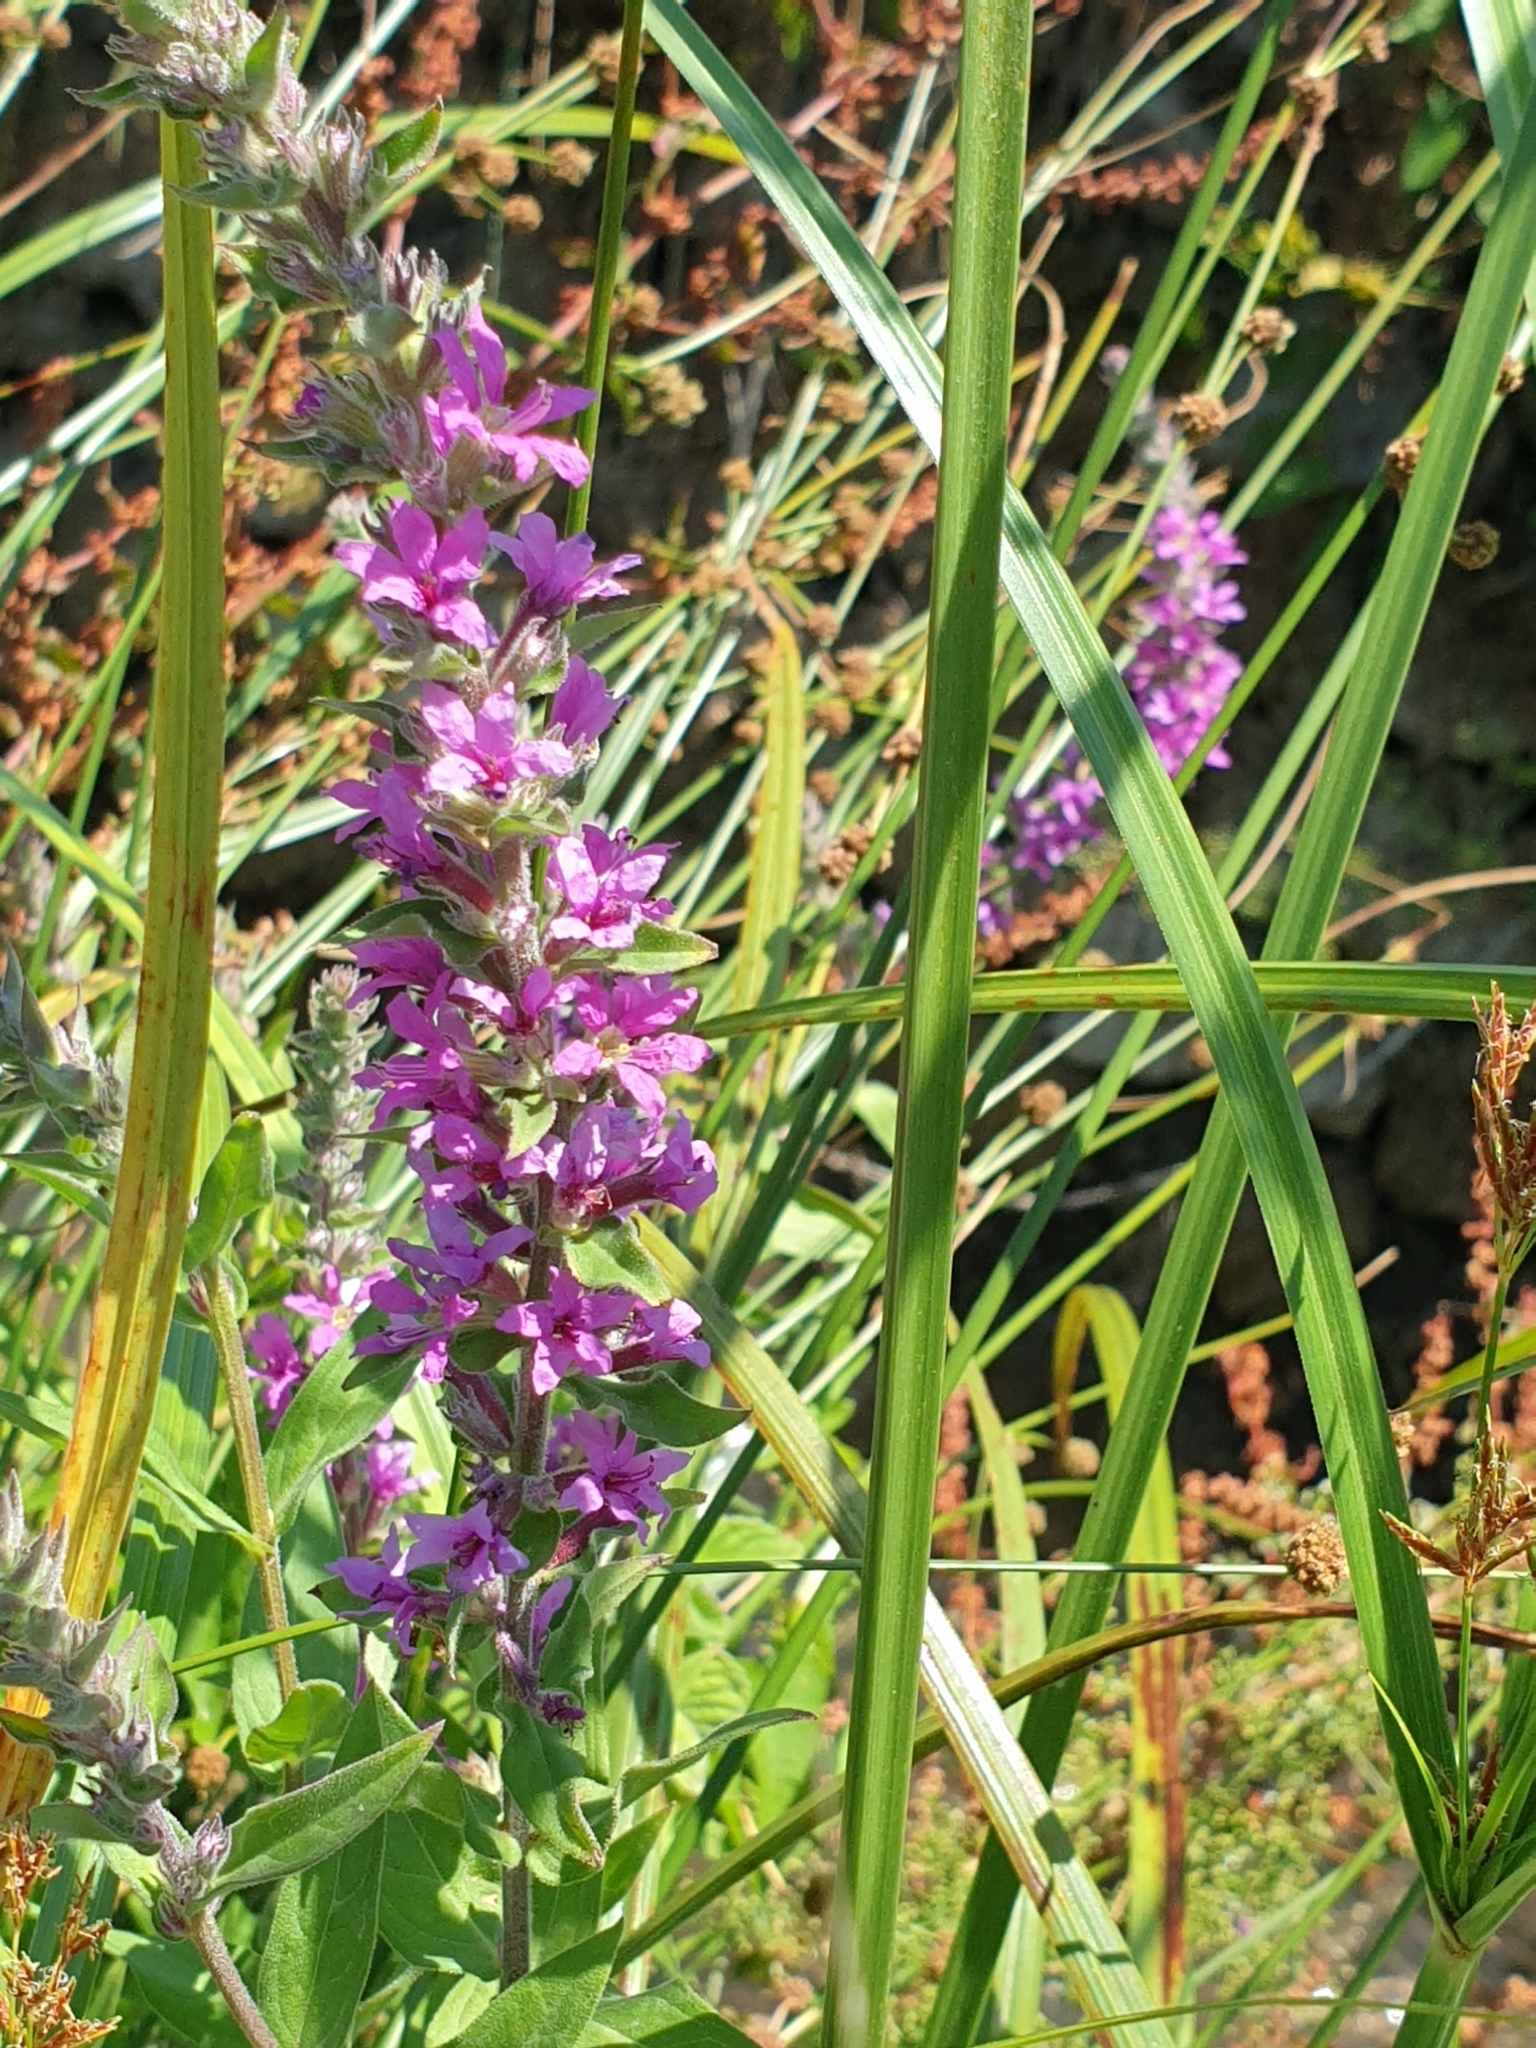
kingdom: Plantae
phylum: Tracheophyta
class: Magnoliopsida
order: Myrtales
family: Lythraceae
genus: Lythrum
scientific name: Lythrum salicaria
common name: Purple loosestrife
